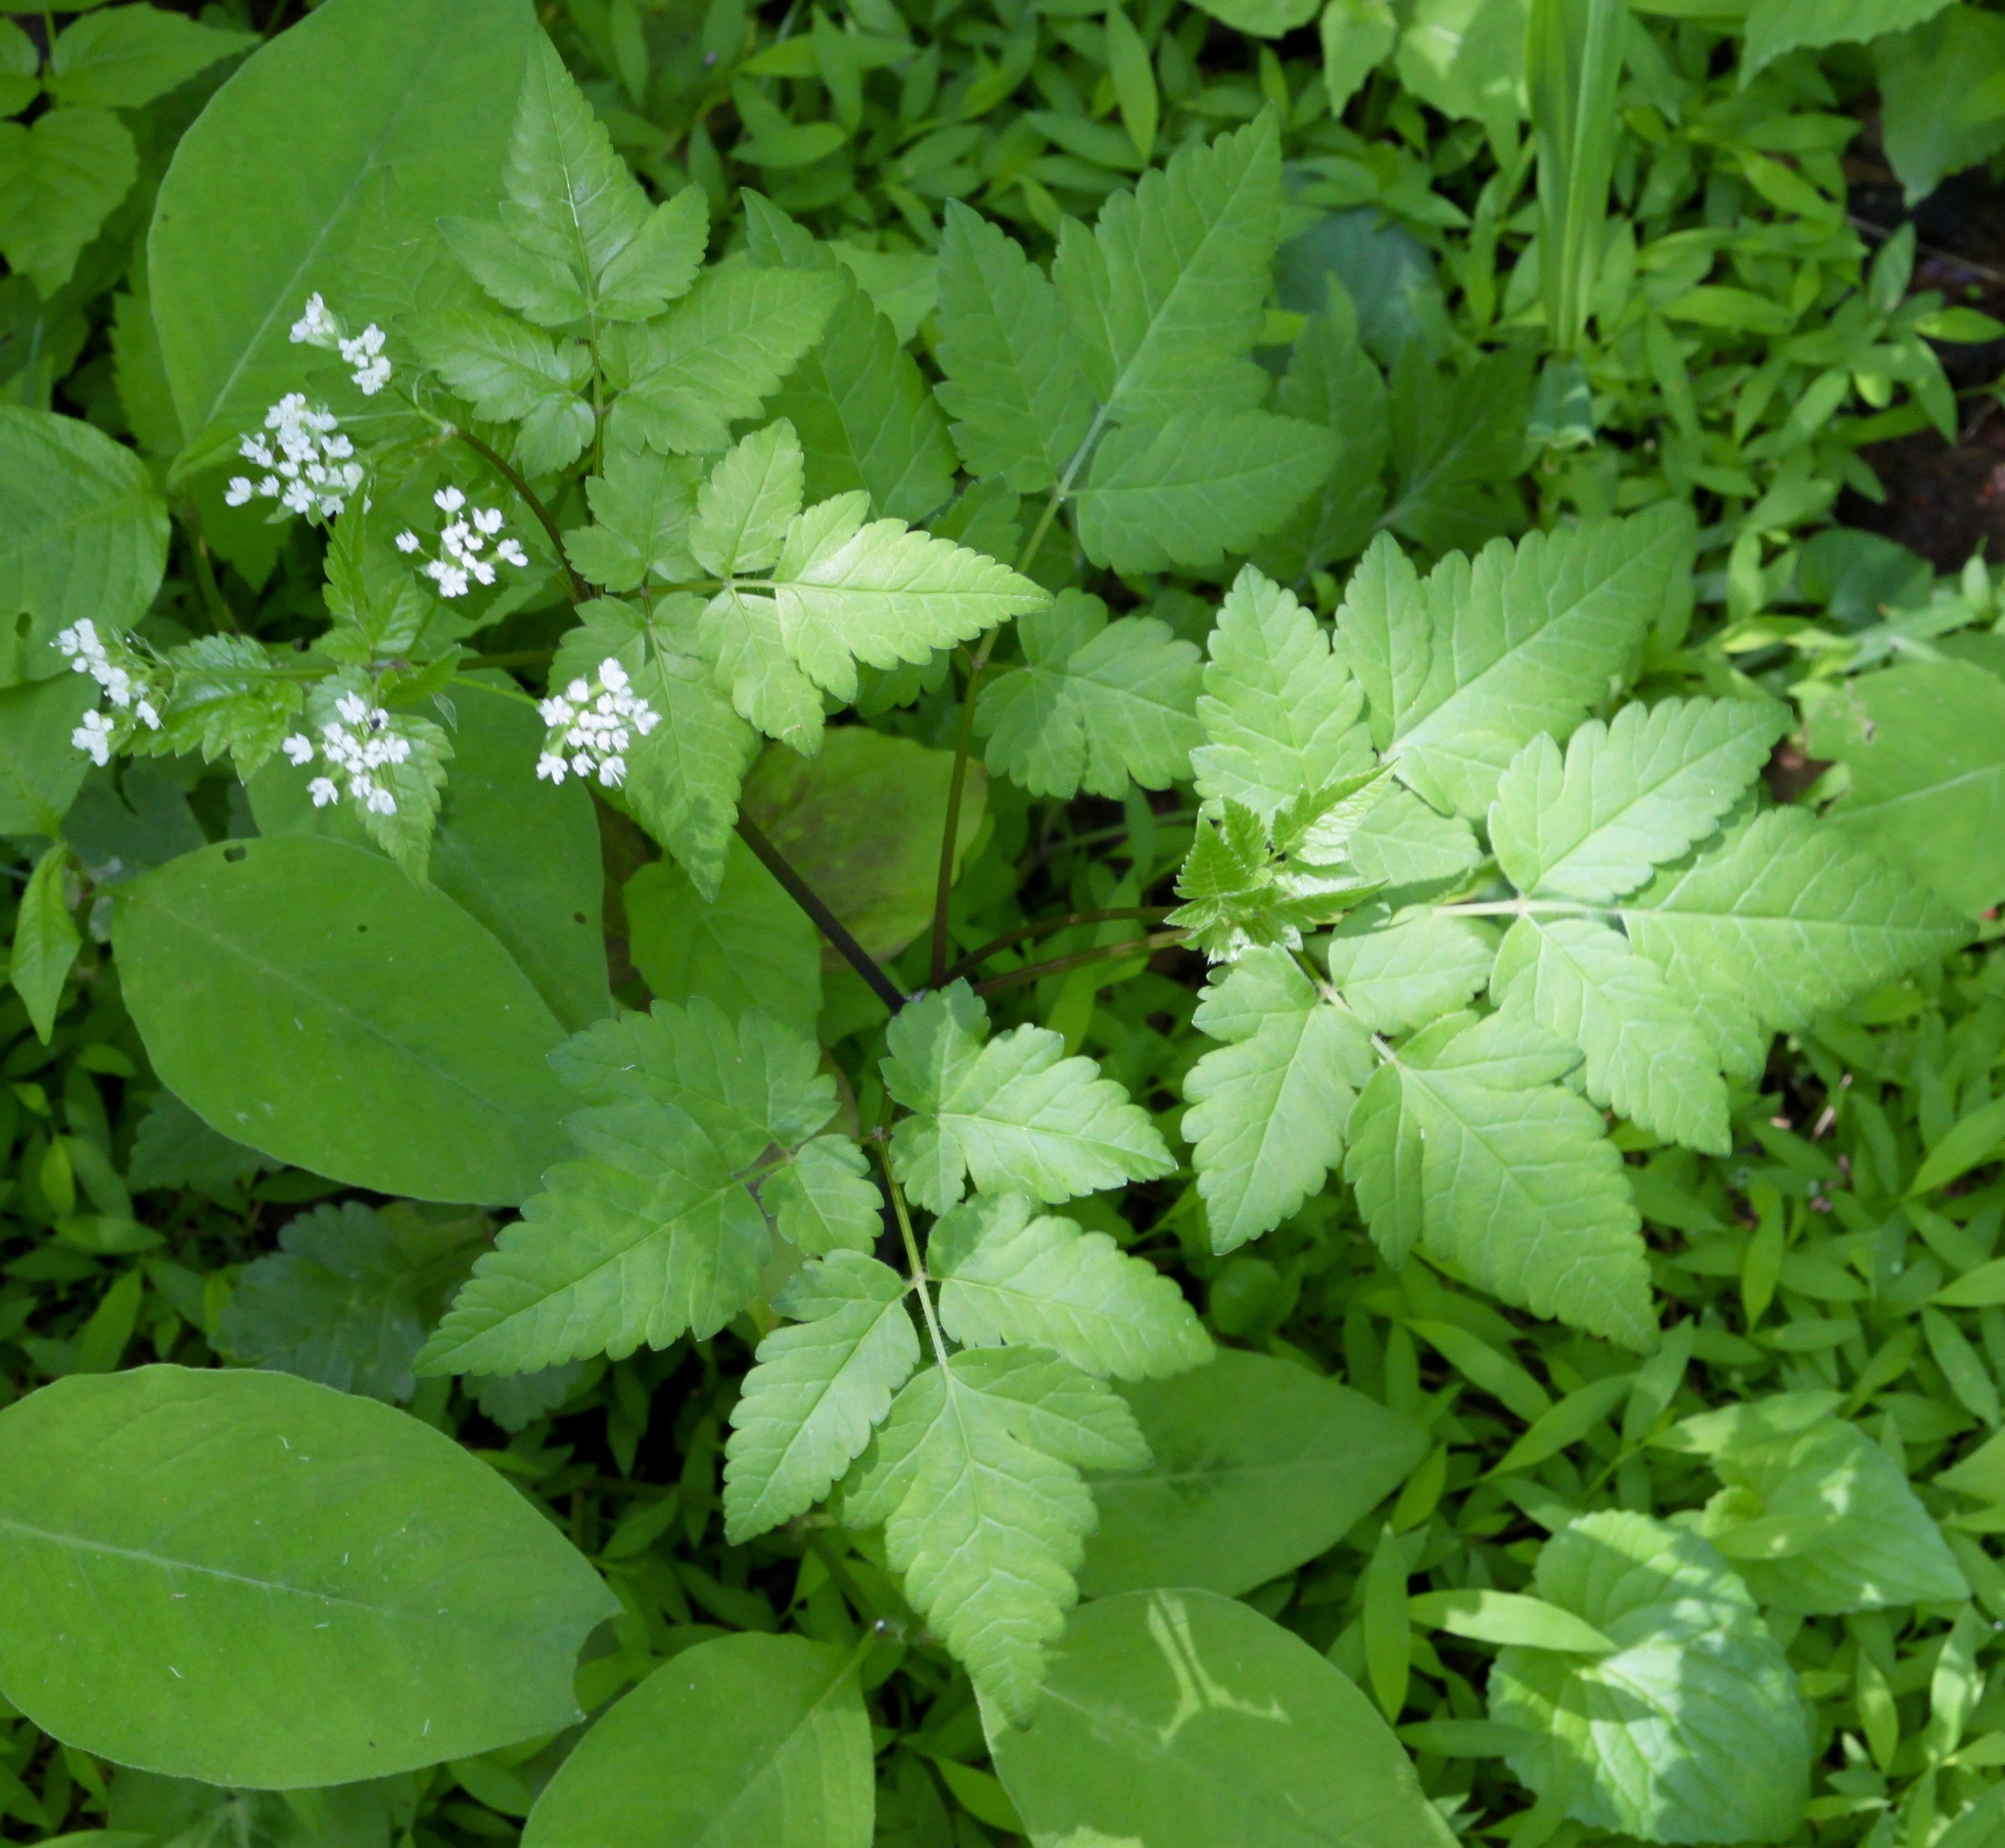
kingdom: Plantae
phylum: Tracheophyta
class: Magnoliopsida
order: Apiales
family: Apiaceae
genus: Osmorhiza
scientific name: Osmorhiza longistylis
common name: Smooth sweet cicely
